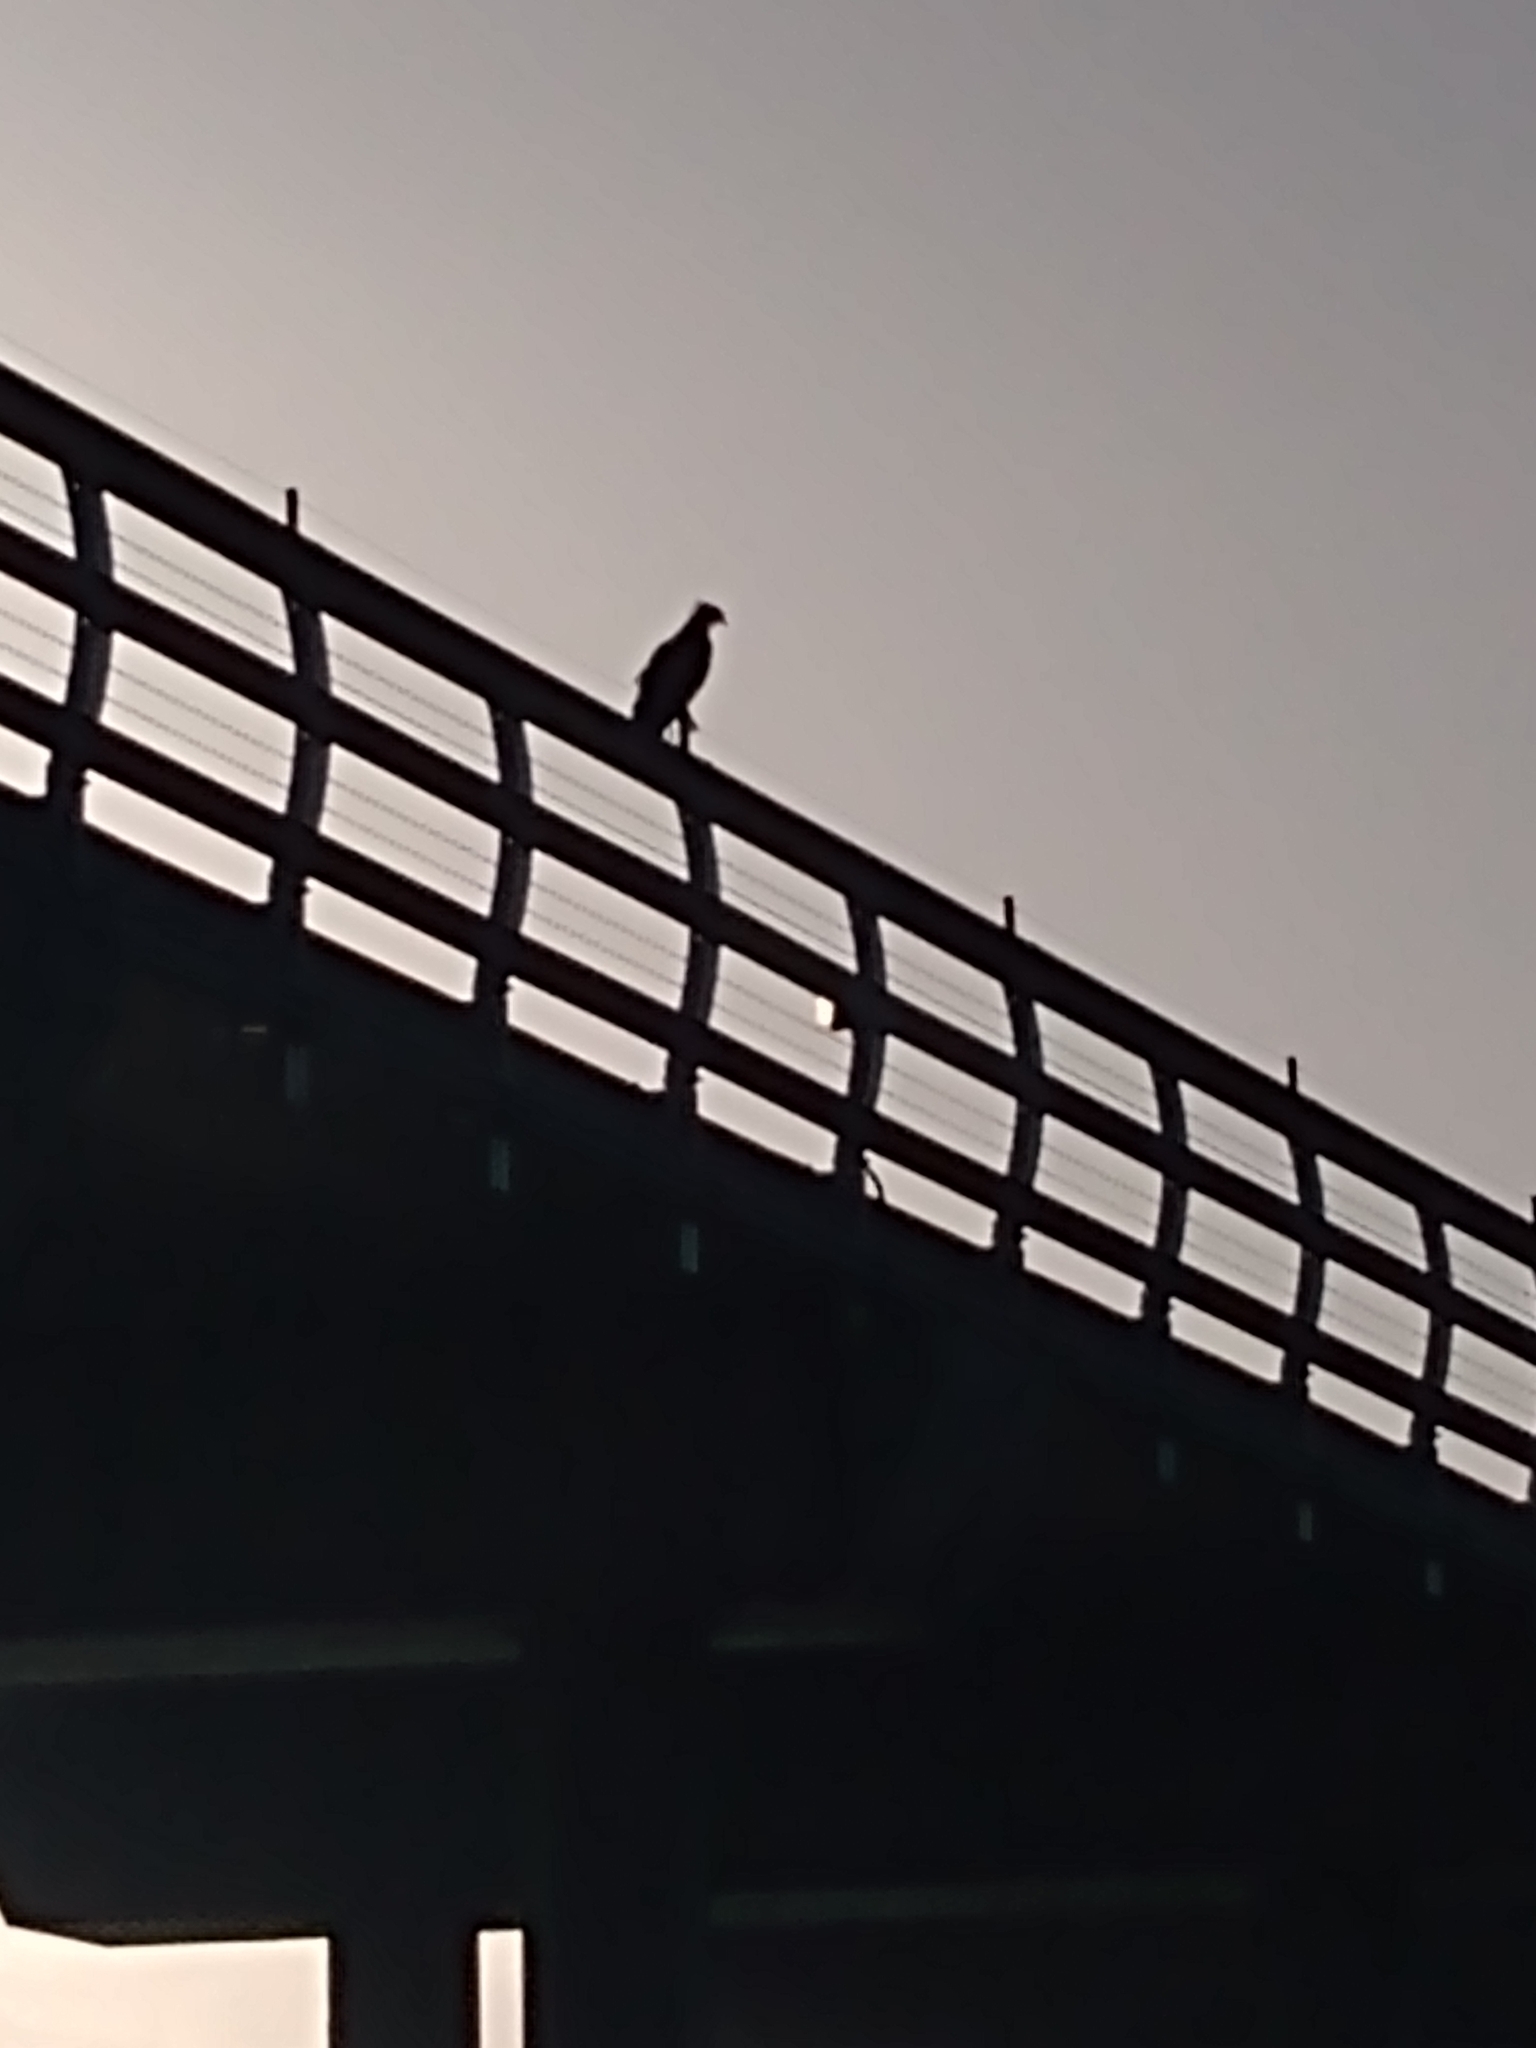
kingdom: Animalia
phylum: Chordata
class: Aves
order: Accipitriformes
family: Pandionidae
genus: Pandion
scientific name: Pandion haliaetus
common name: Osprey
